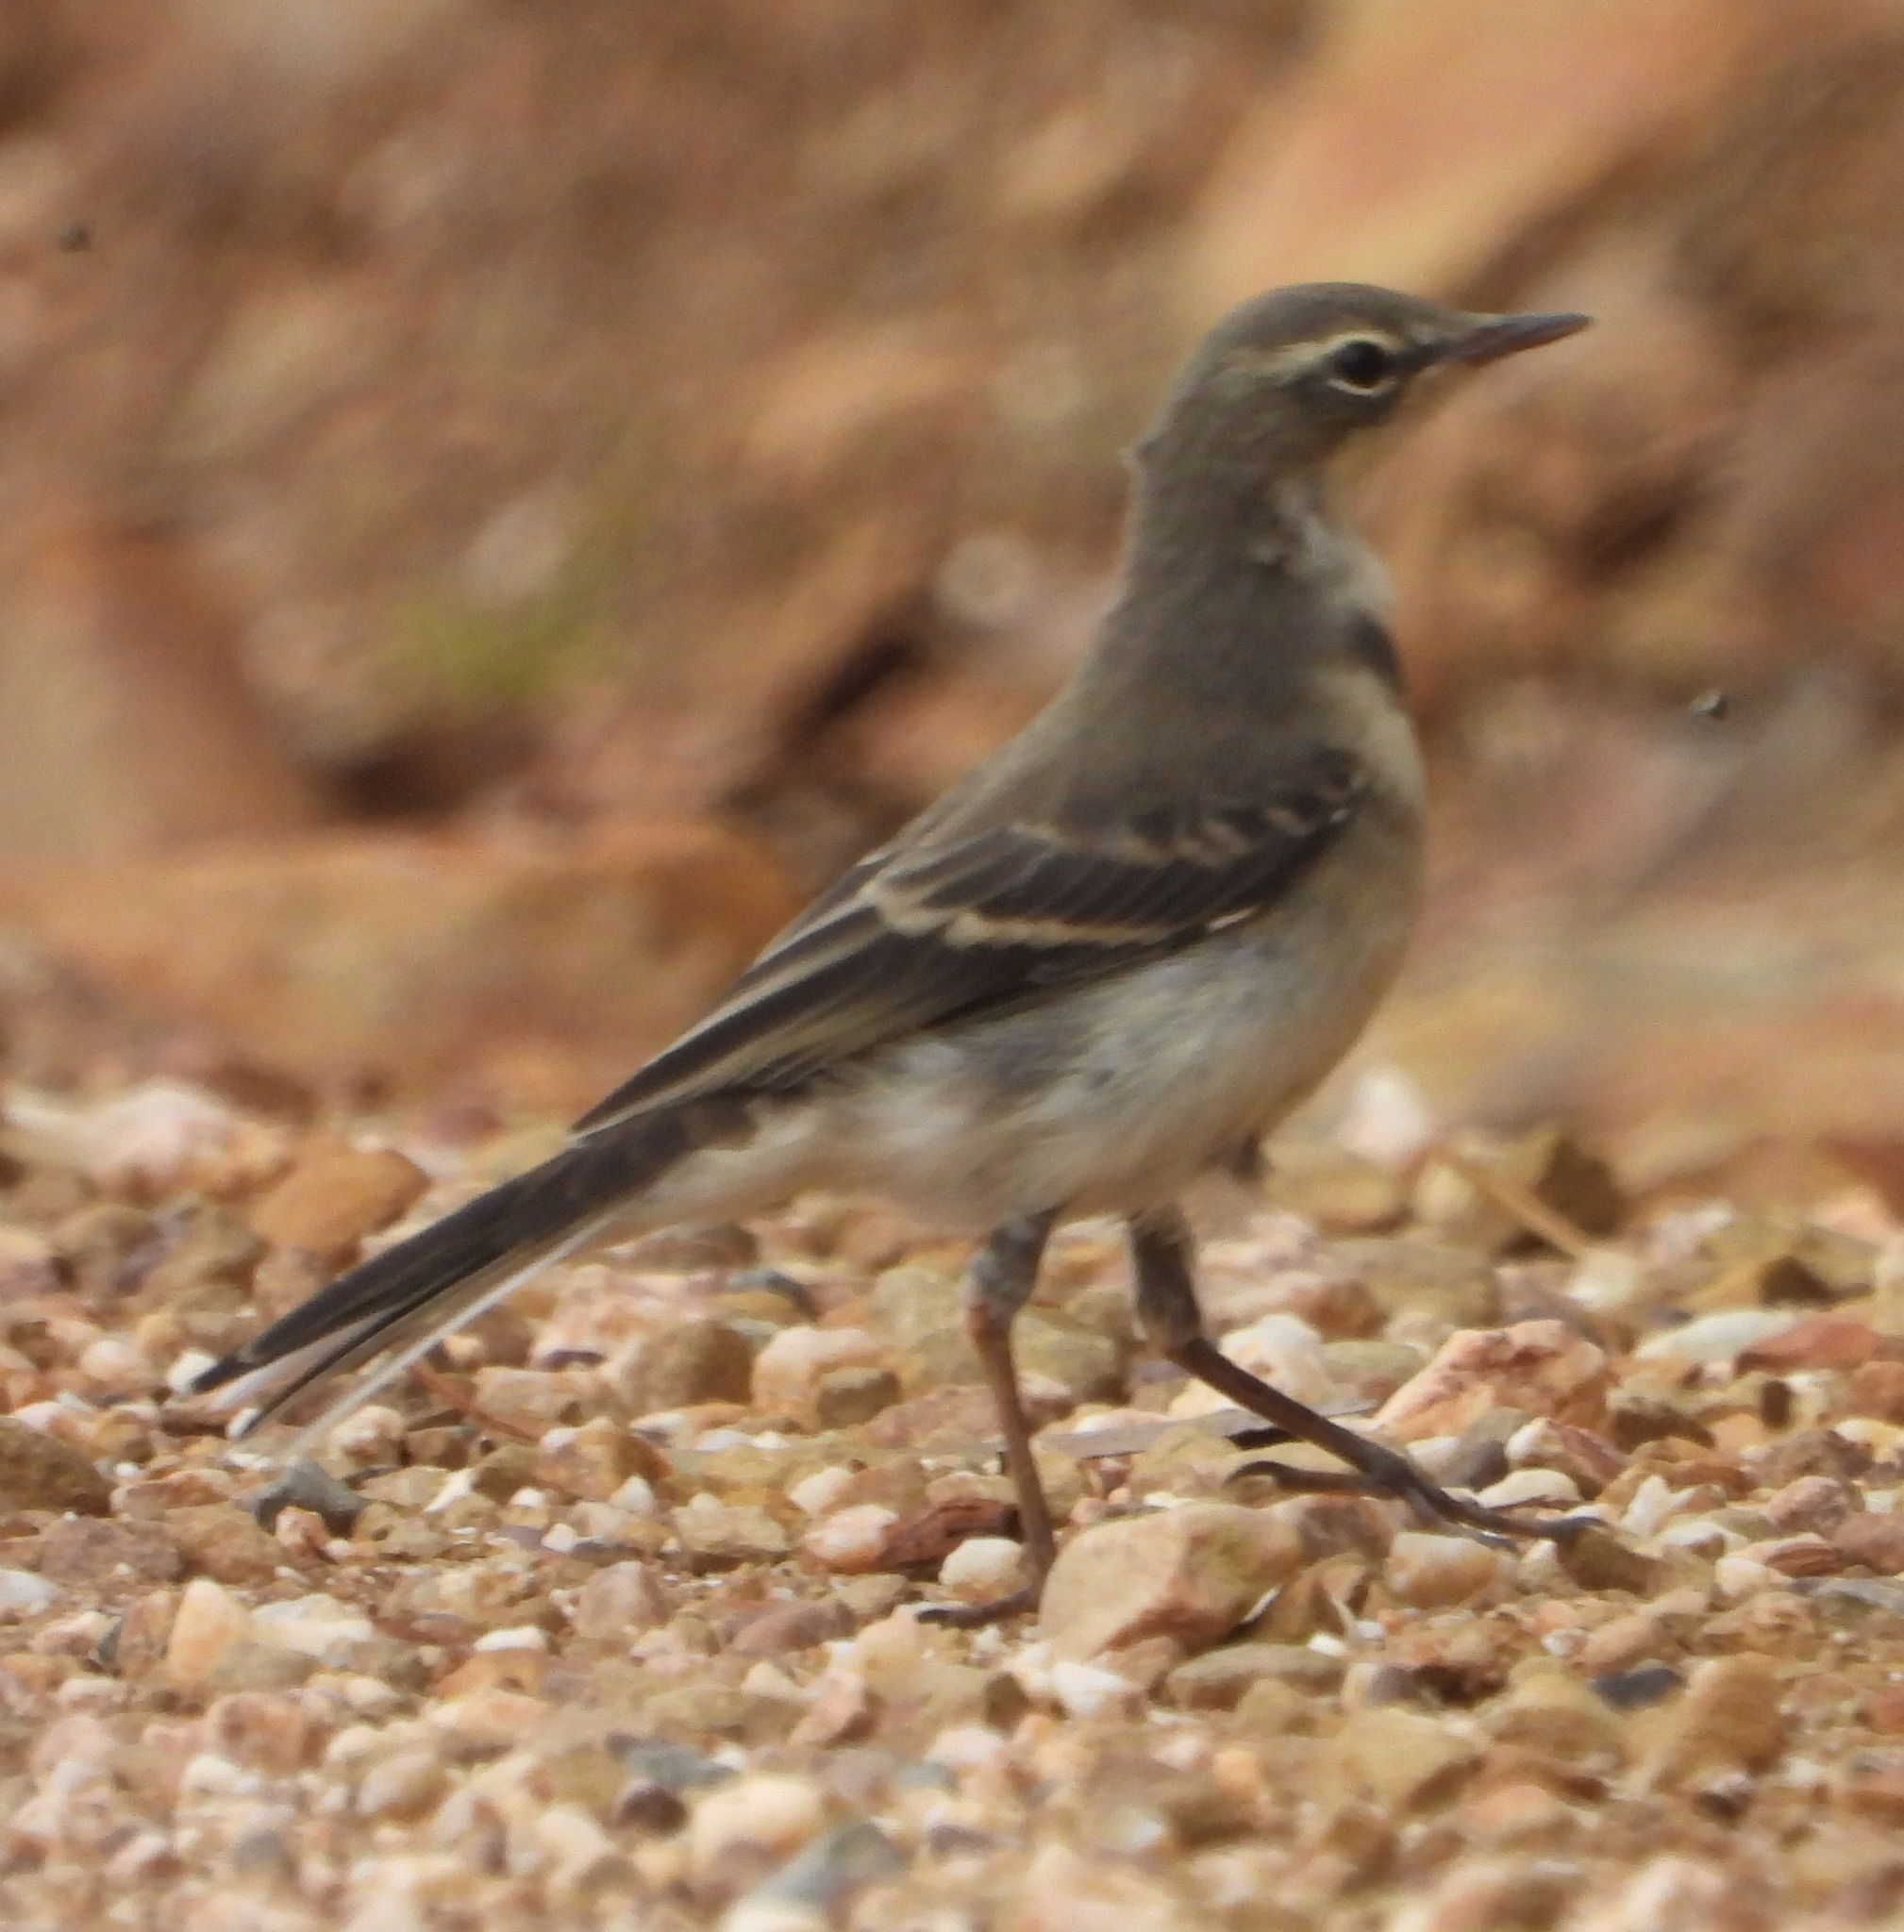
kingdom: Animalia
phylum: Chordata
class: Aves
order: Passeriformes
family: Motacillidae
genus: Motacilla
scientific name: Motacilla capensis
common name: Cape wagtail
